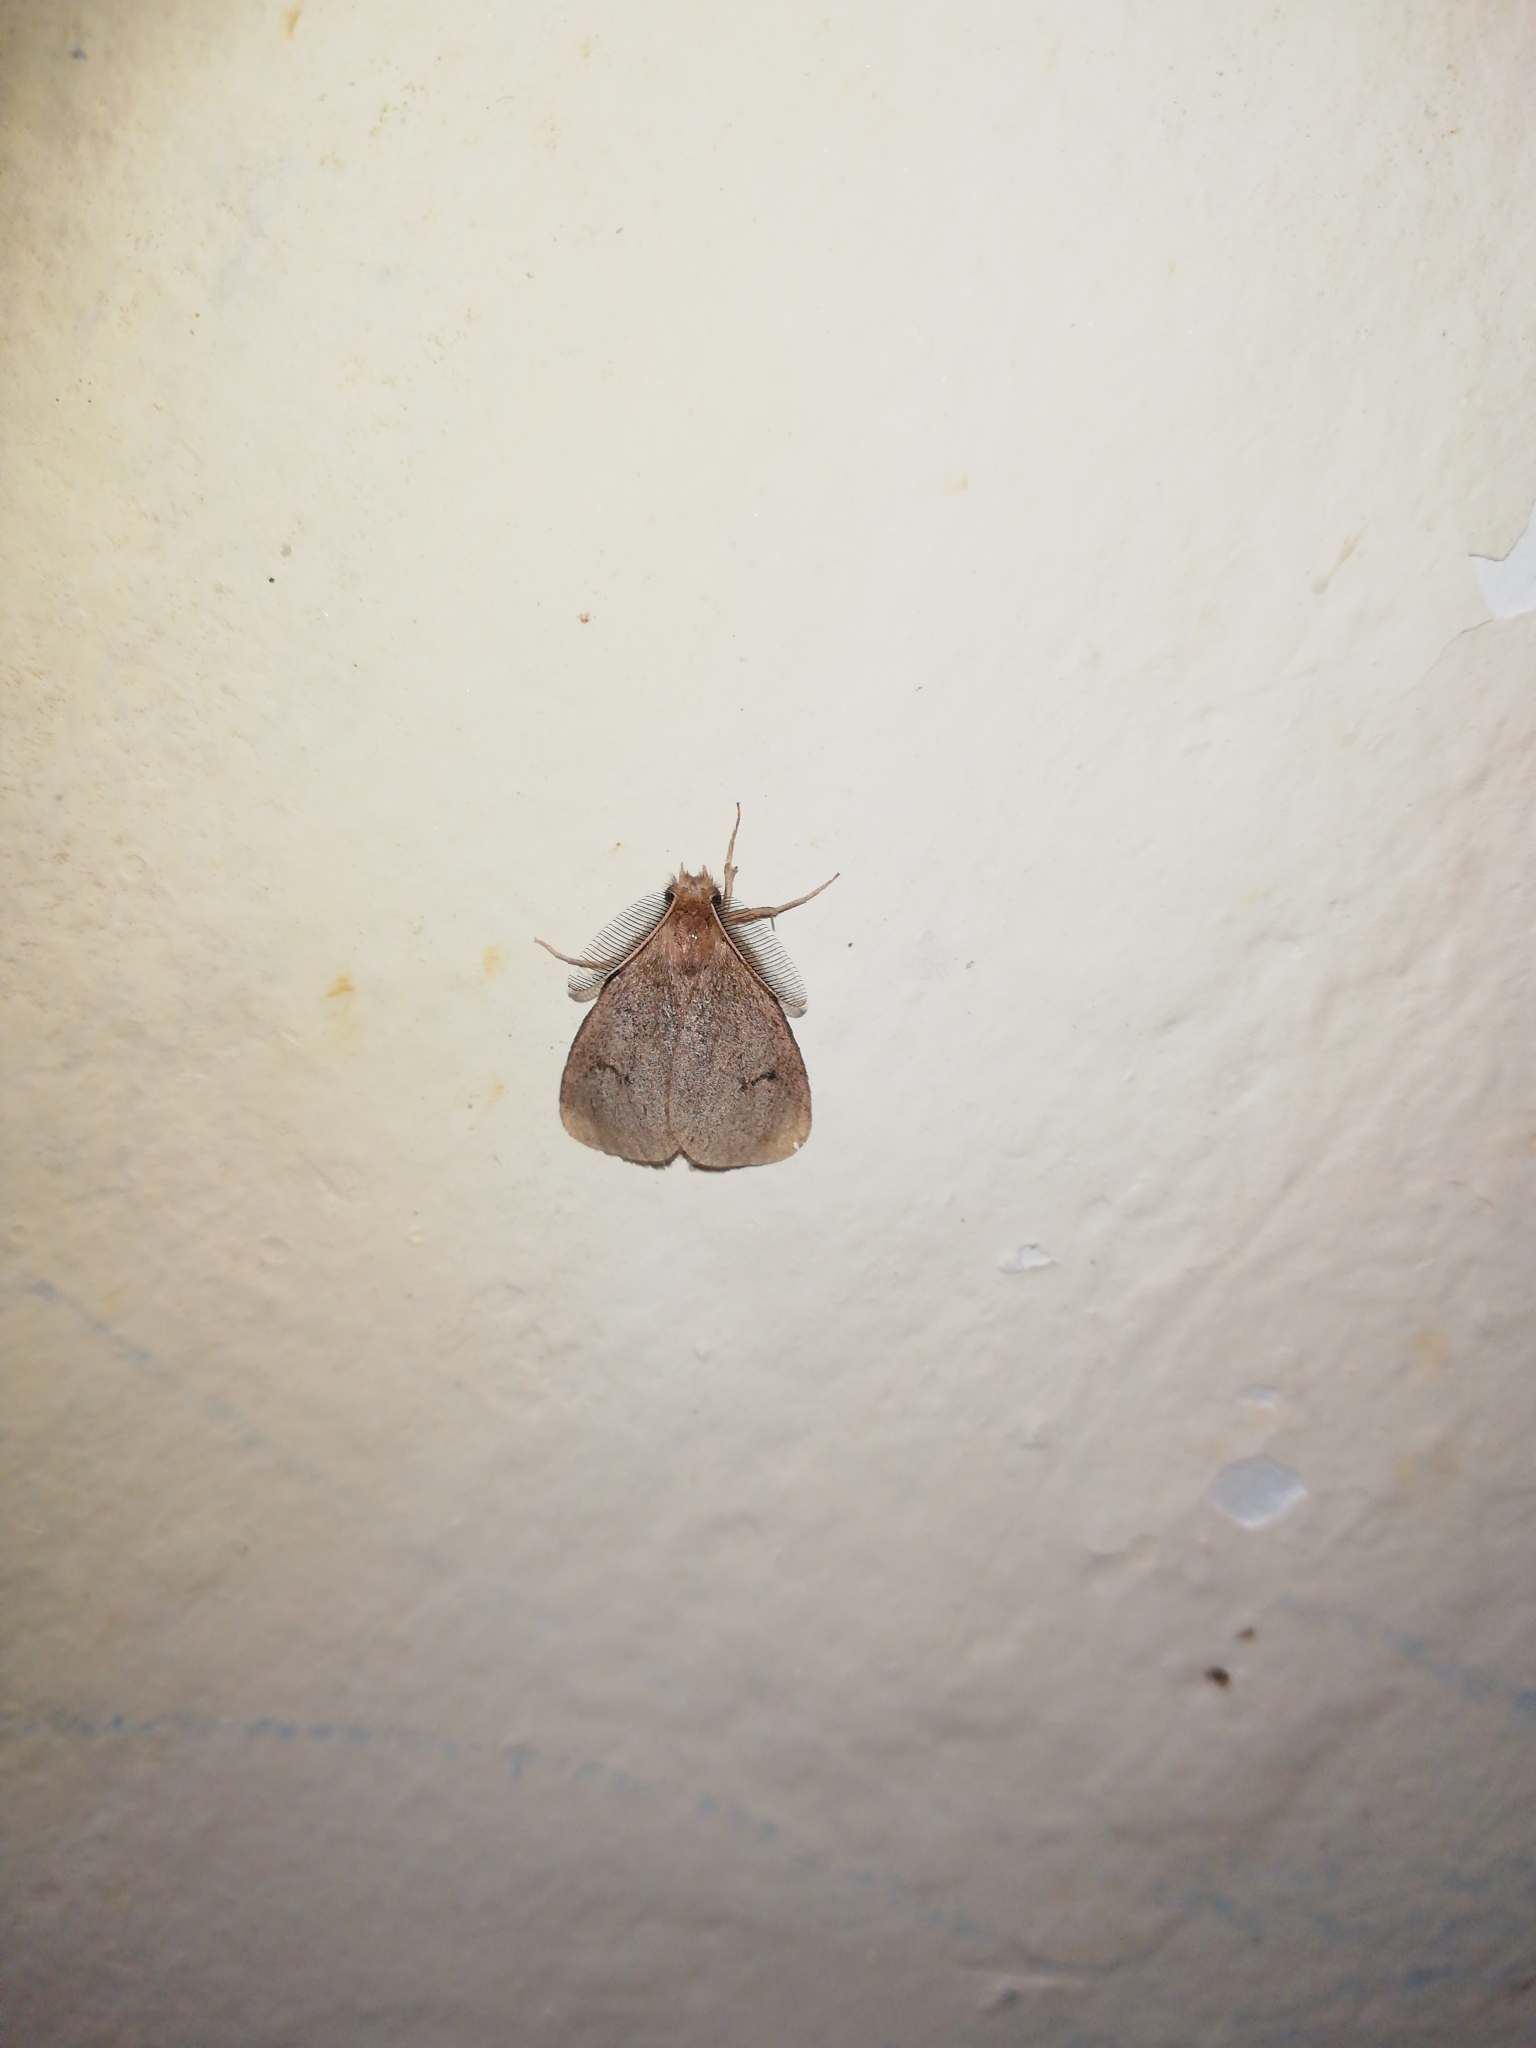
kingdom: Animalia
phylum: Arthropoda
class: Insecta
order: Lepidoptera
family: Erebidae
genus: Laelia
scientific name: Laelia exclamationis
